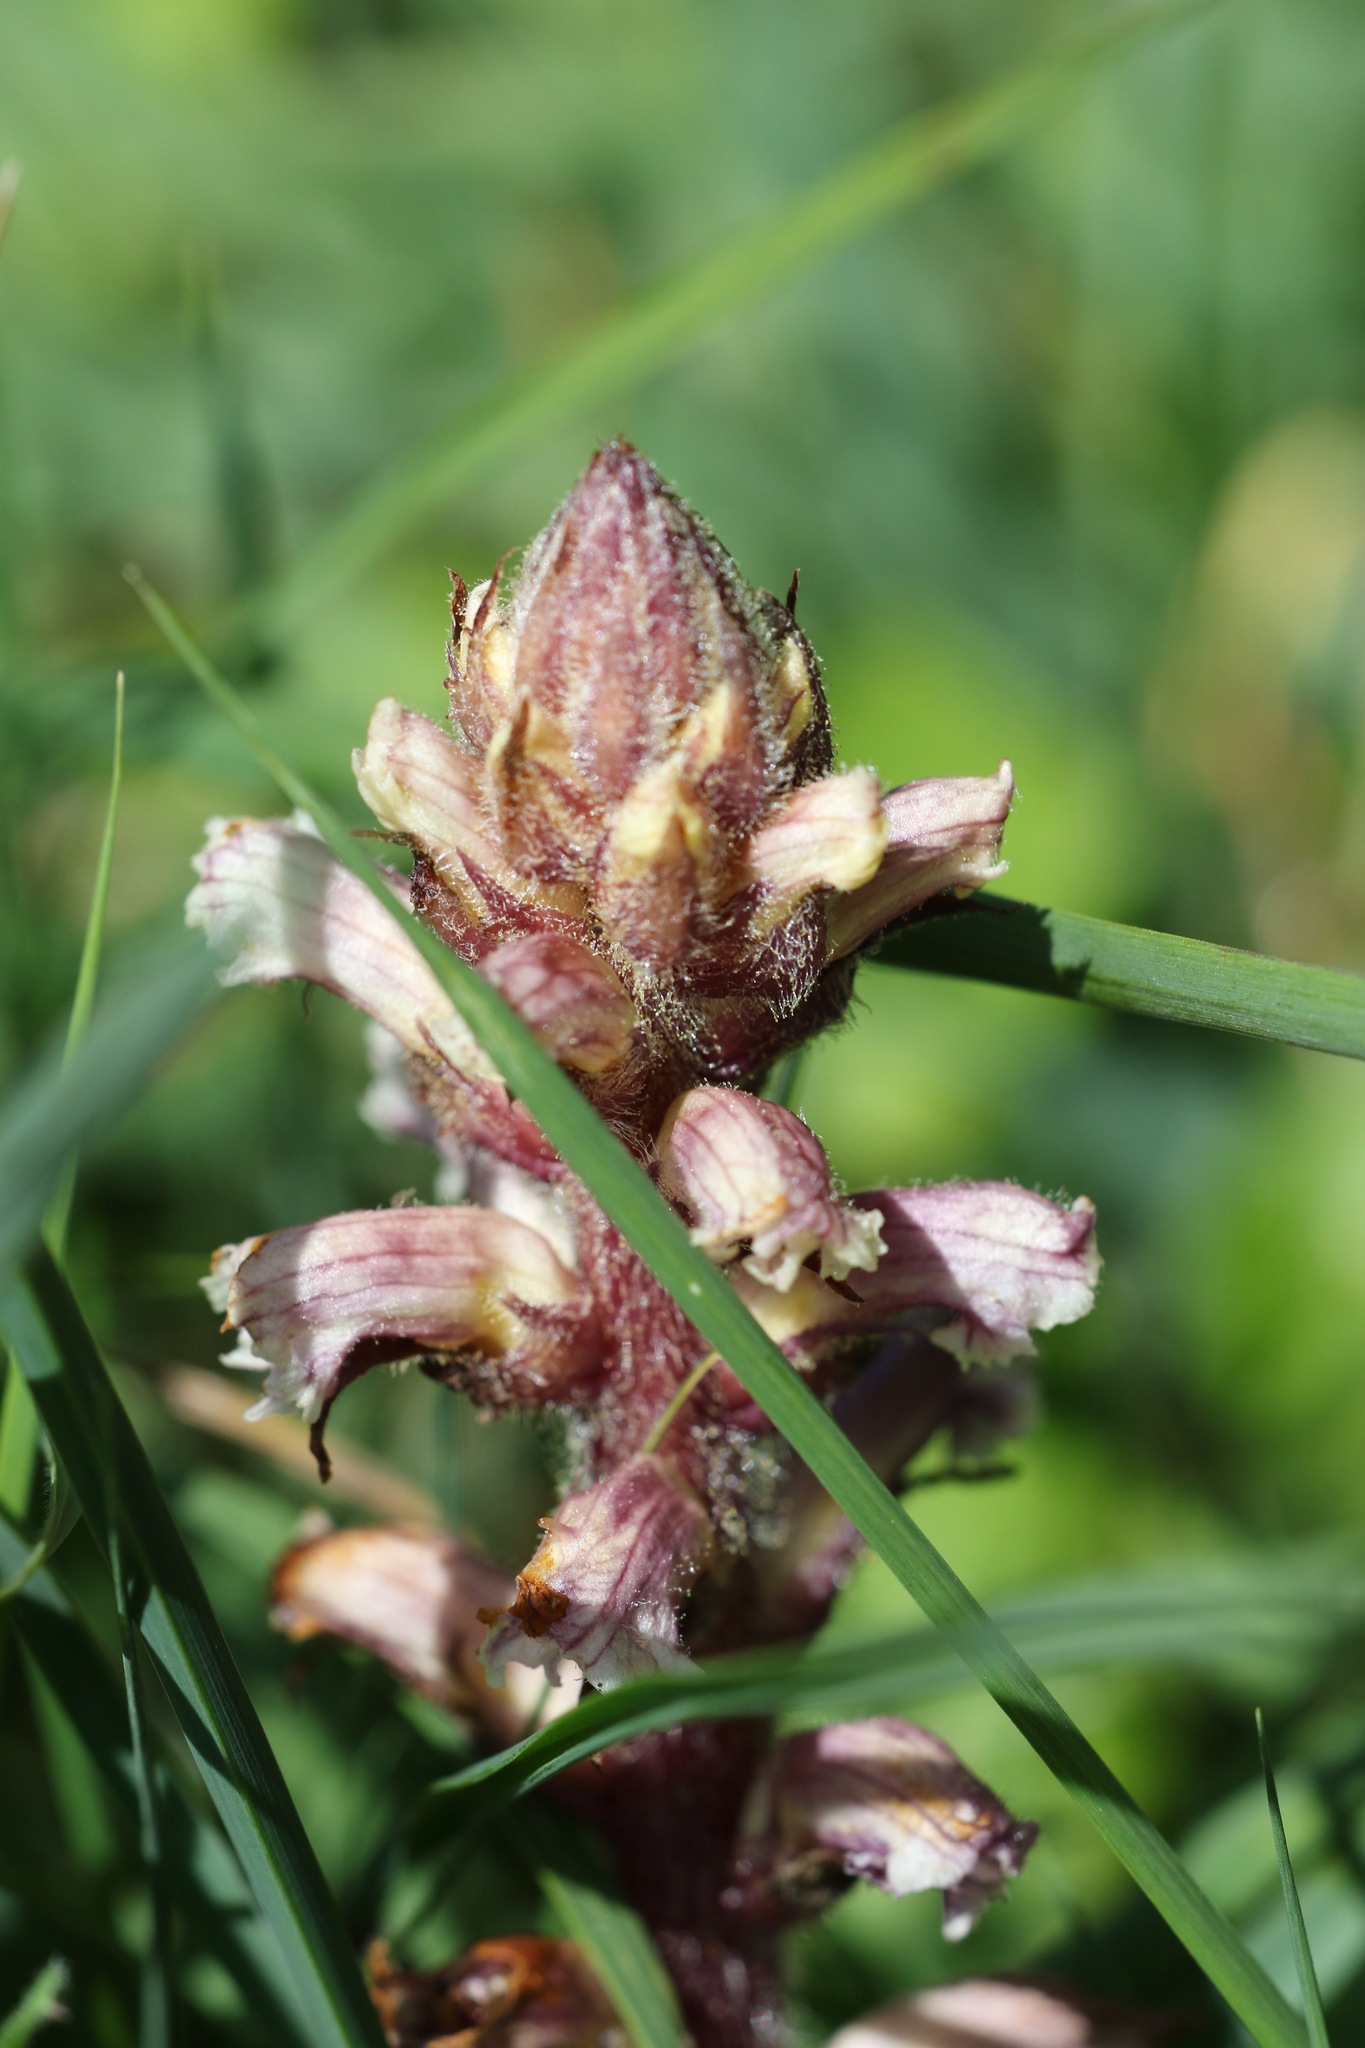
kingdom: Plantae
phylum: Tracheophyta
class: Magnoliopsida
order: Lamiales
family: Orobanchaceae
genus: Orobanche
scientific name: Orobanche minor
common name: Common broomrape
